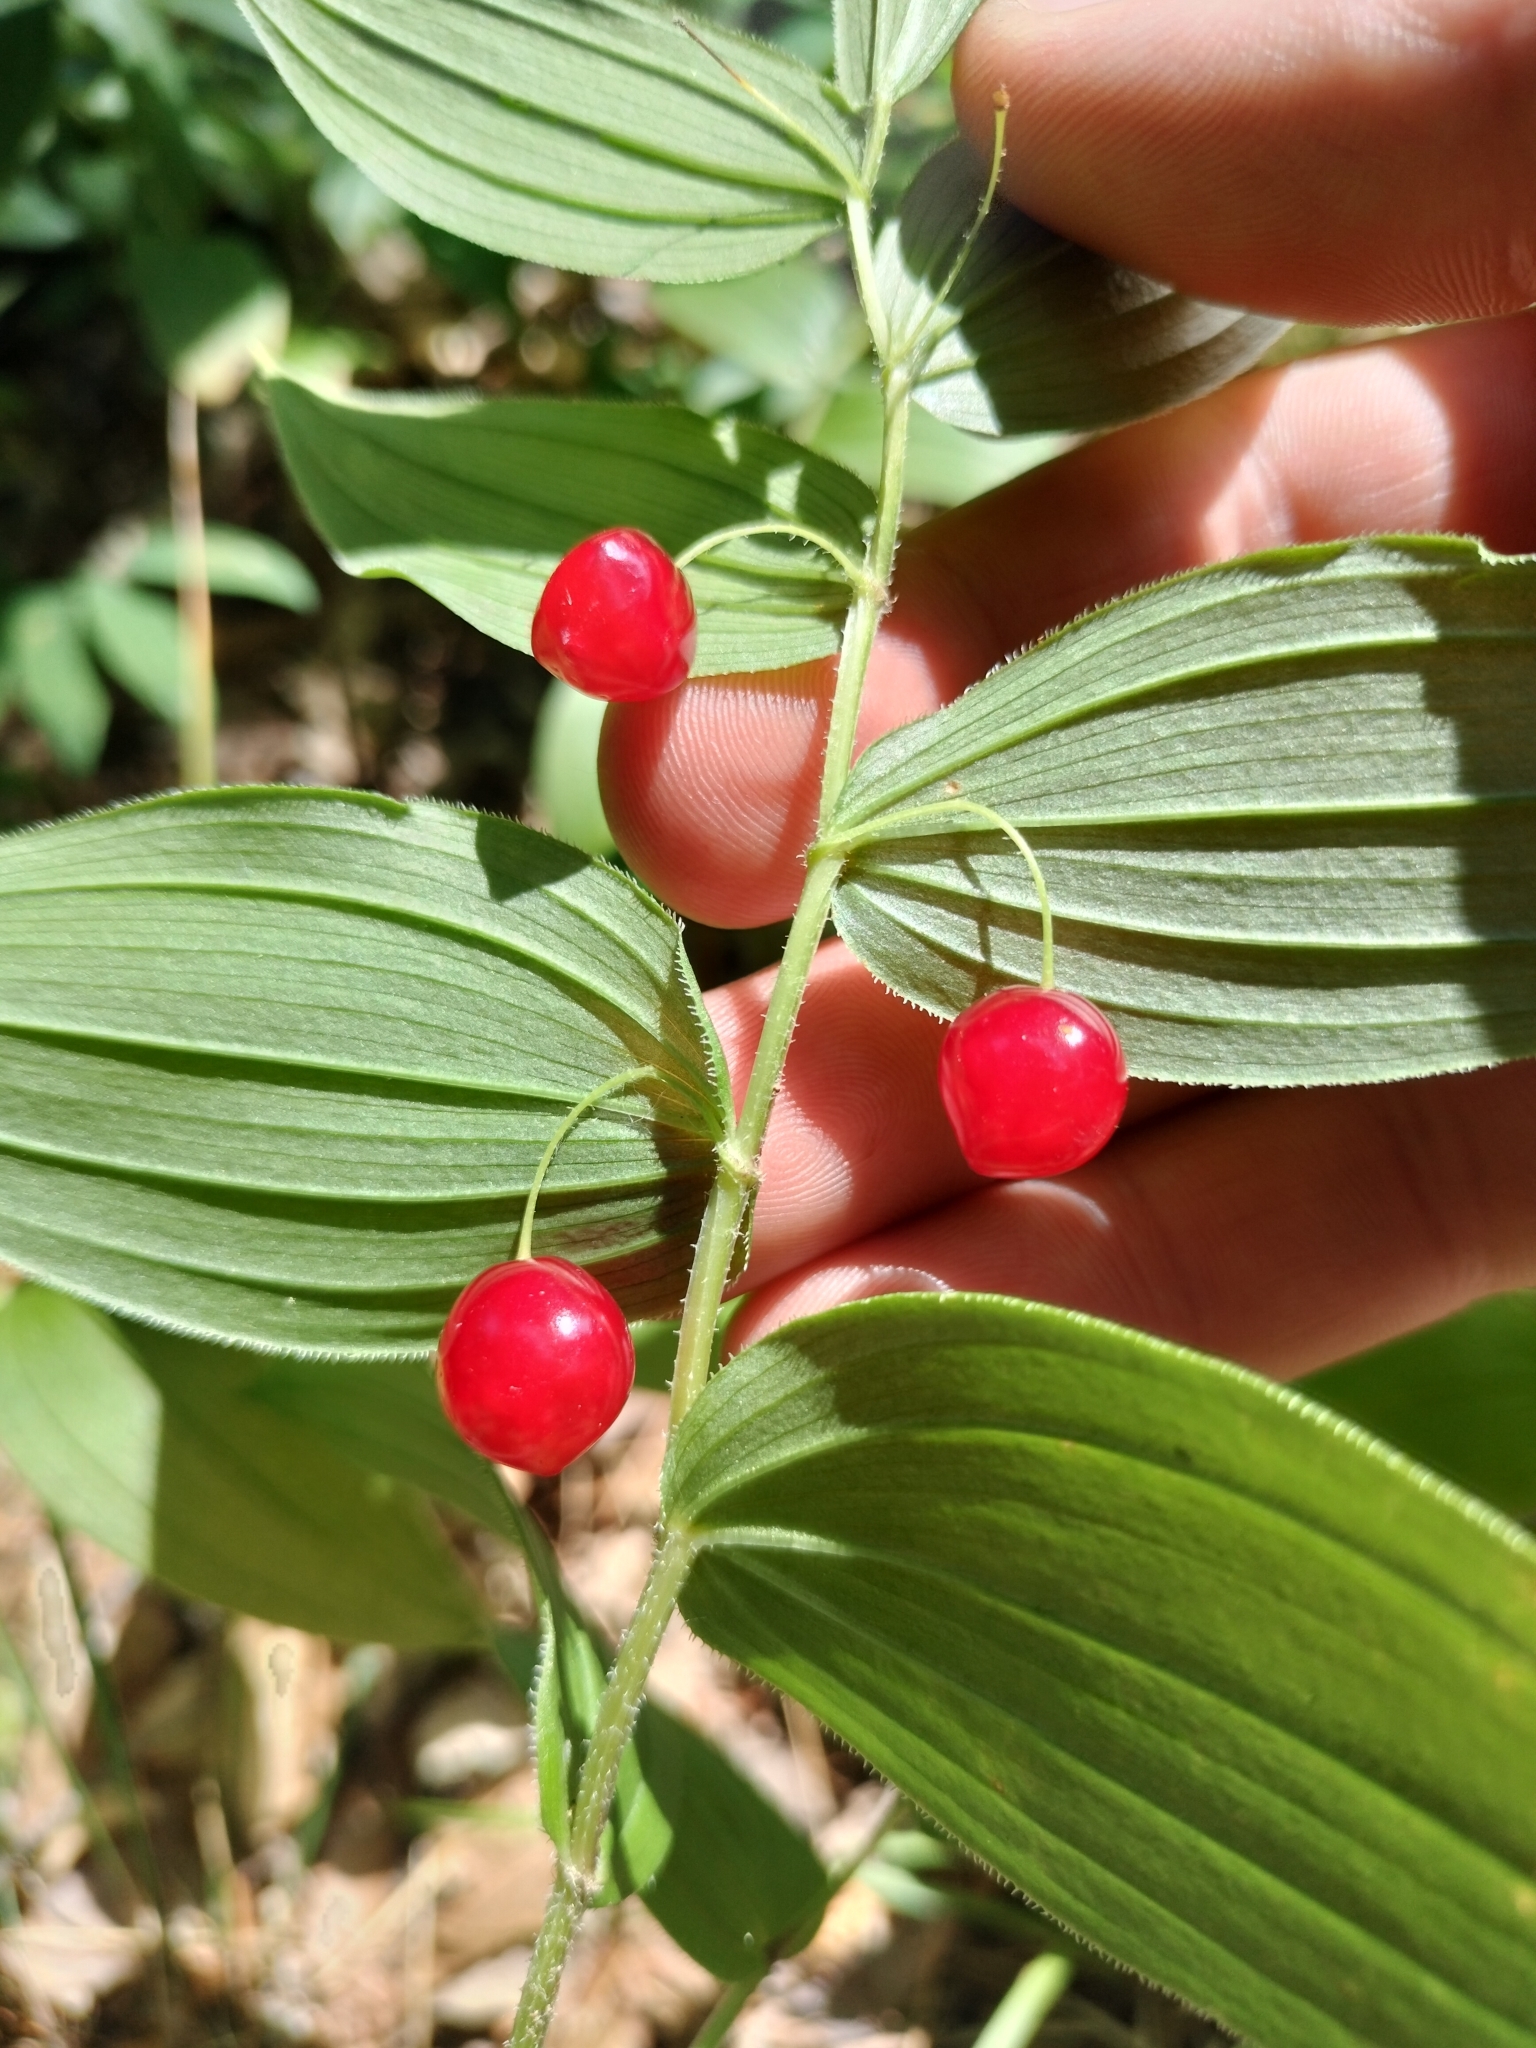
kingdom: Plantae
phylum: Tracheophyta
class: Liliopsida
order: Liliales
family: Liliaceae
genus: Streptopus
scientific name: Streptopus lanceolatus
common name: Rose mandarin
